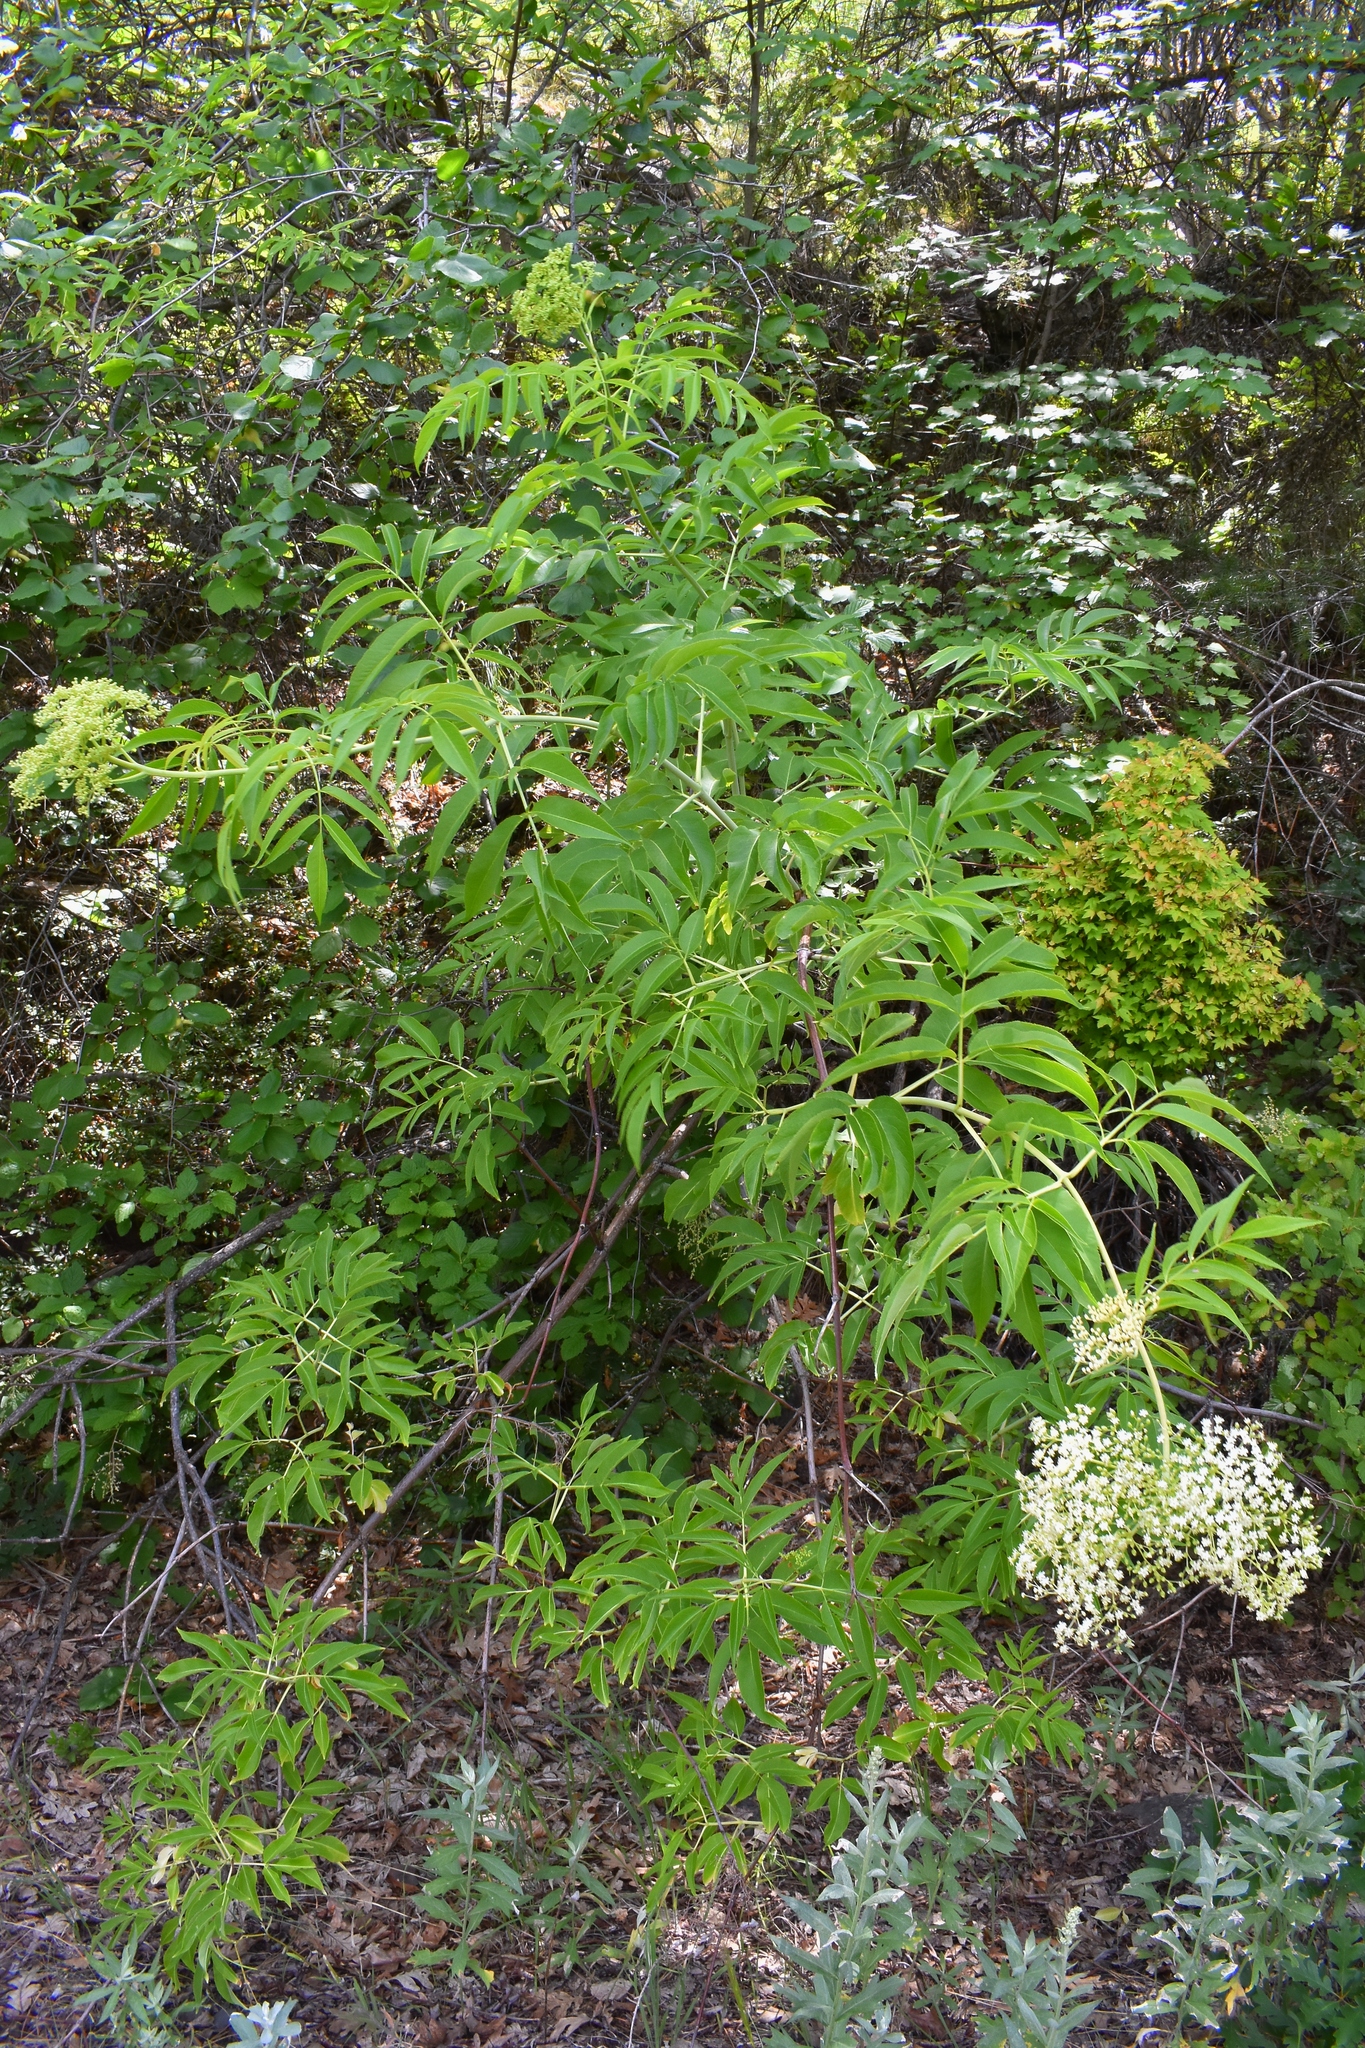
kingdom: Plantae
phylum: Tracheophyta
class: Magnoliopsida
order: Dipsacales
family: Viburnaceae
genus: Sambucus
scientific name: Sambucus cerulea
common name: Blue elder
